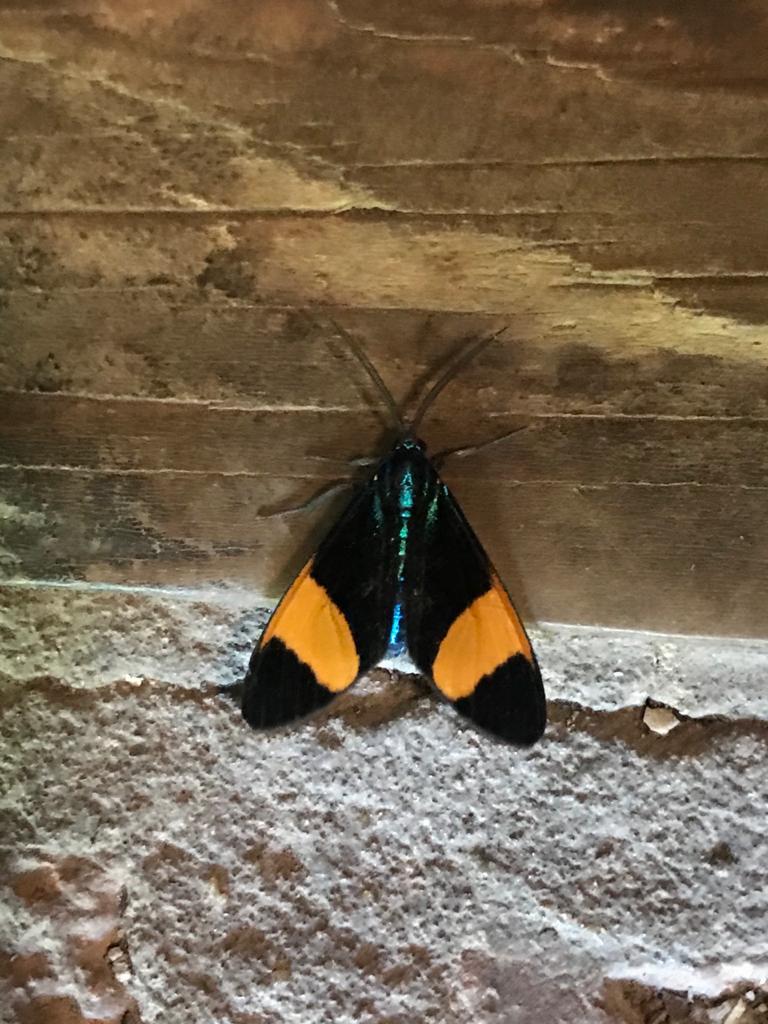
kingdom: Animalia
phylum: Arthropoda
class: Insecta
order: Lepidoptera
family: Erebidae
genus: Cyanopepla
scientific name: Cyanopepla similis
